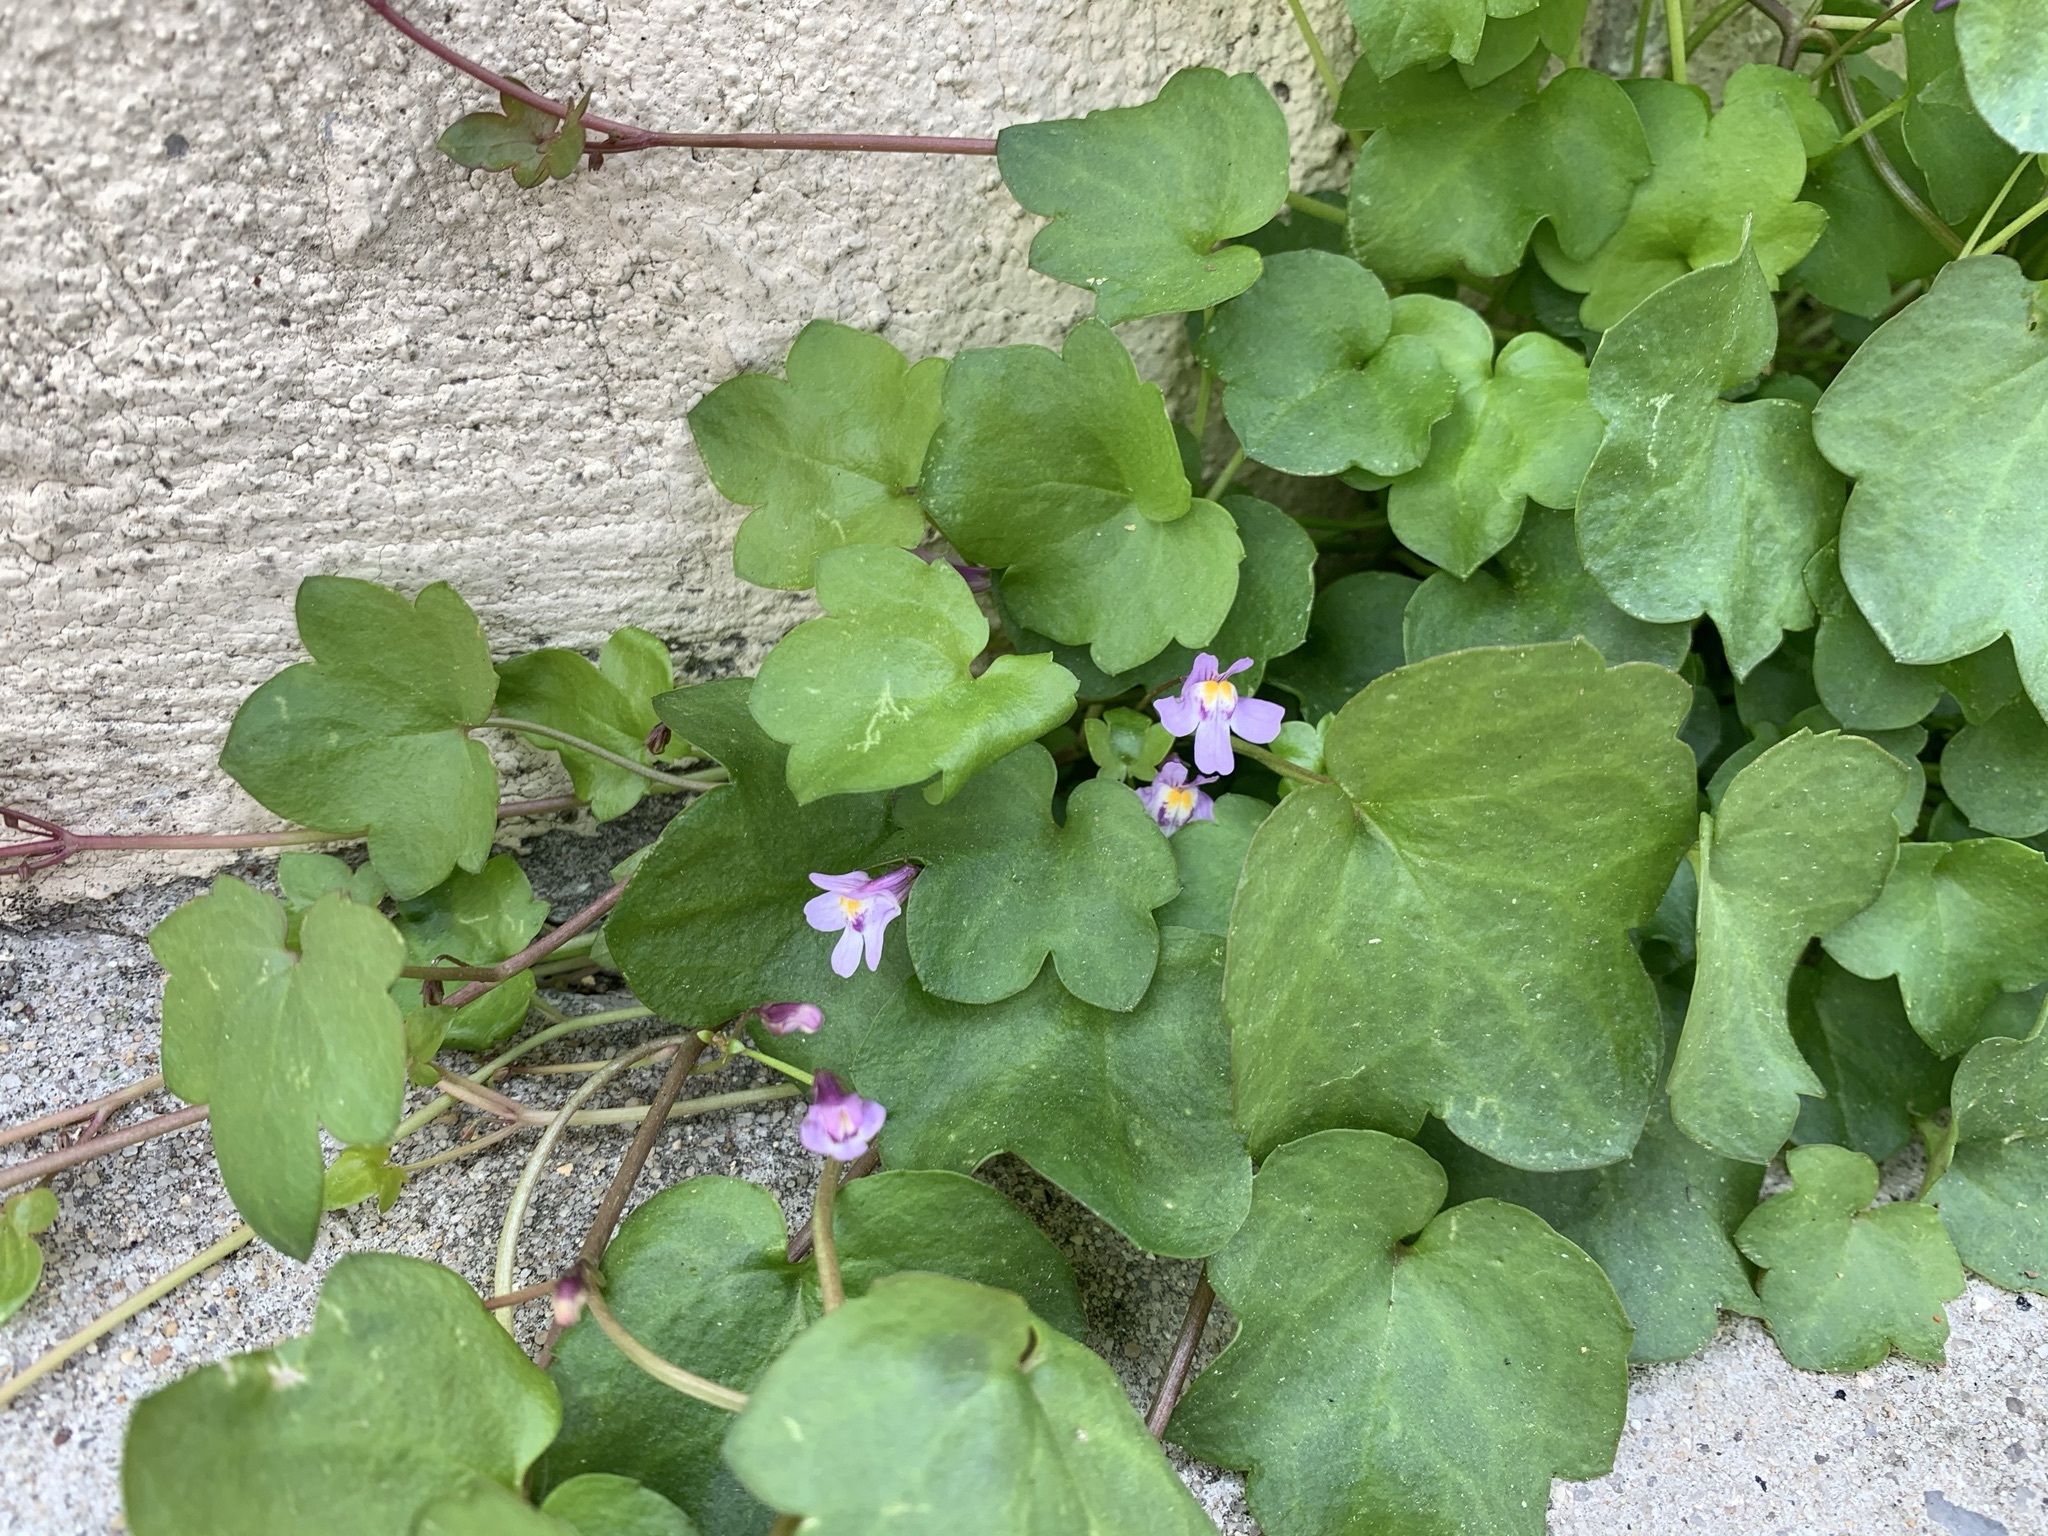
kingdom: Plantae
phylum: Tracheophyta
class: Magnoliopsida
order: Lamiales
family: Plantaginaceae
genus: Cymbalaria
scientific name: Cymbalaria muralis
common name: Ivy-leaved toadflax
